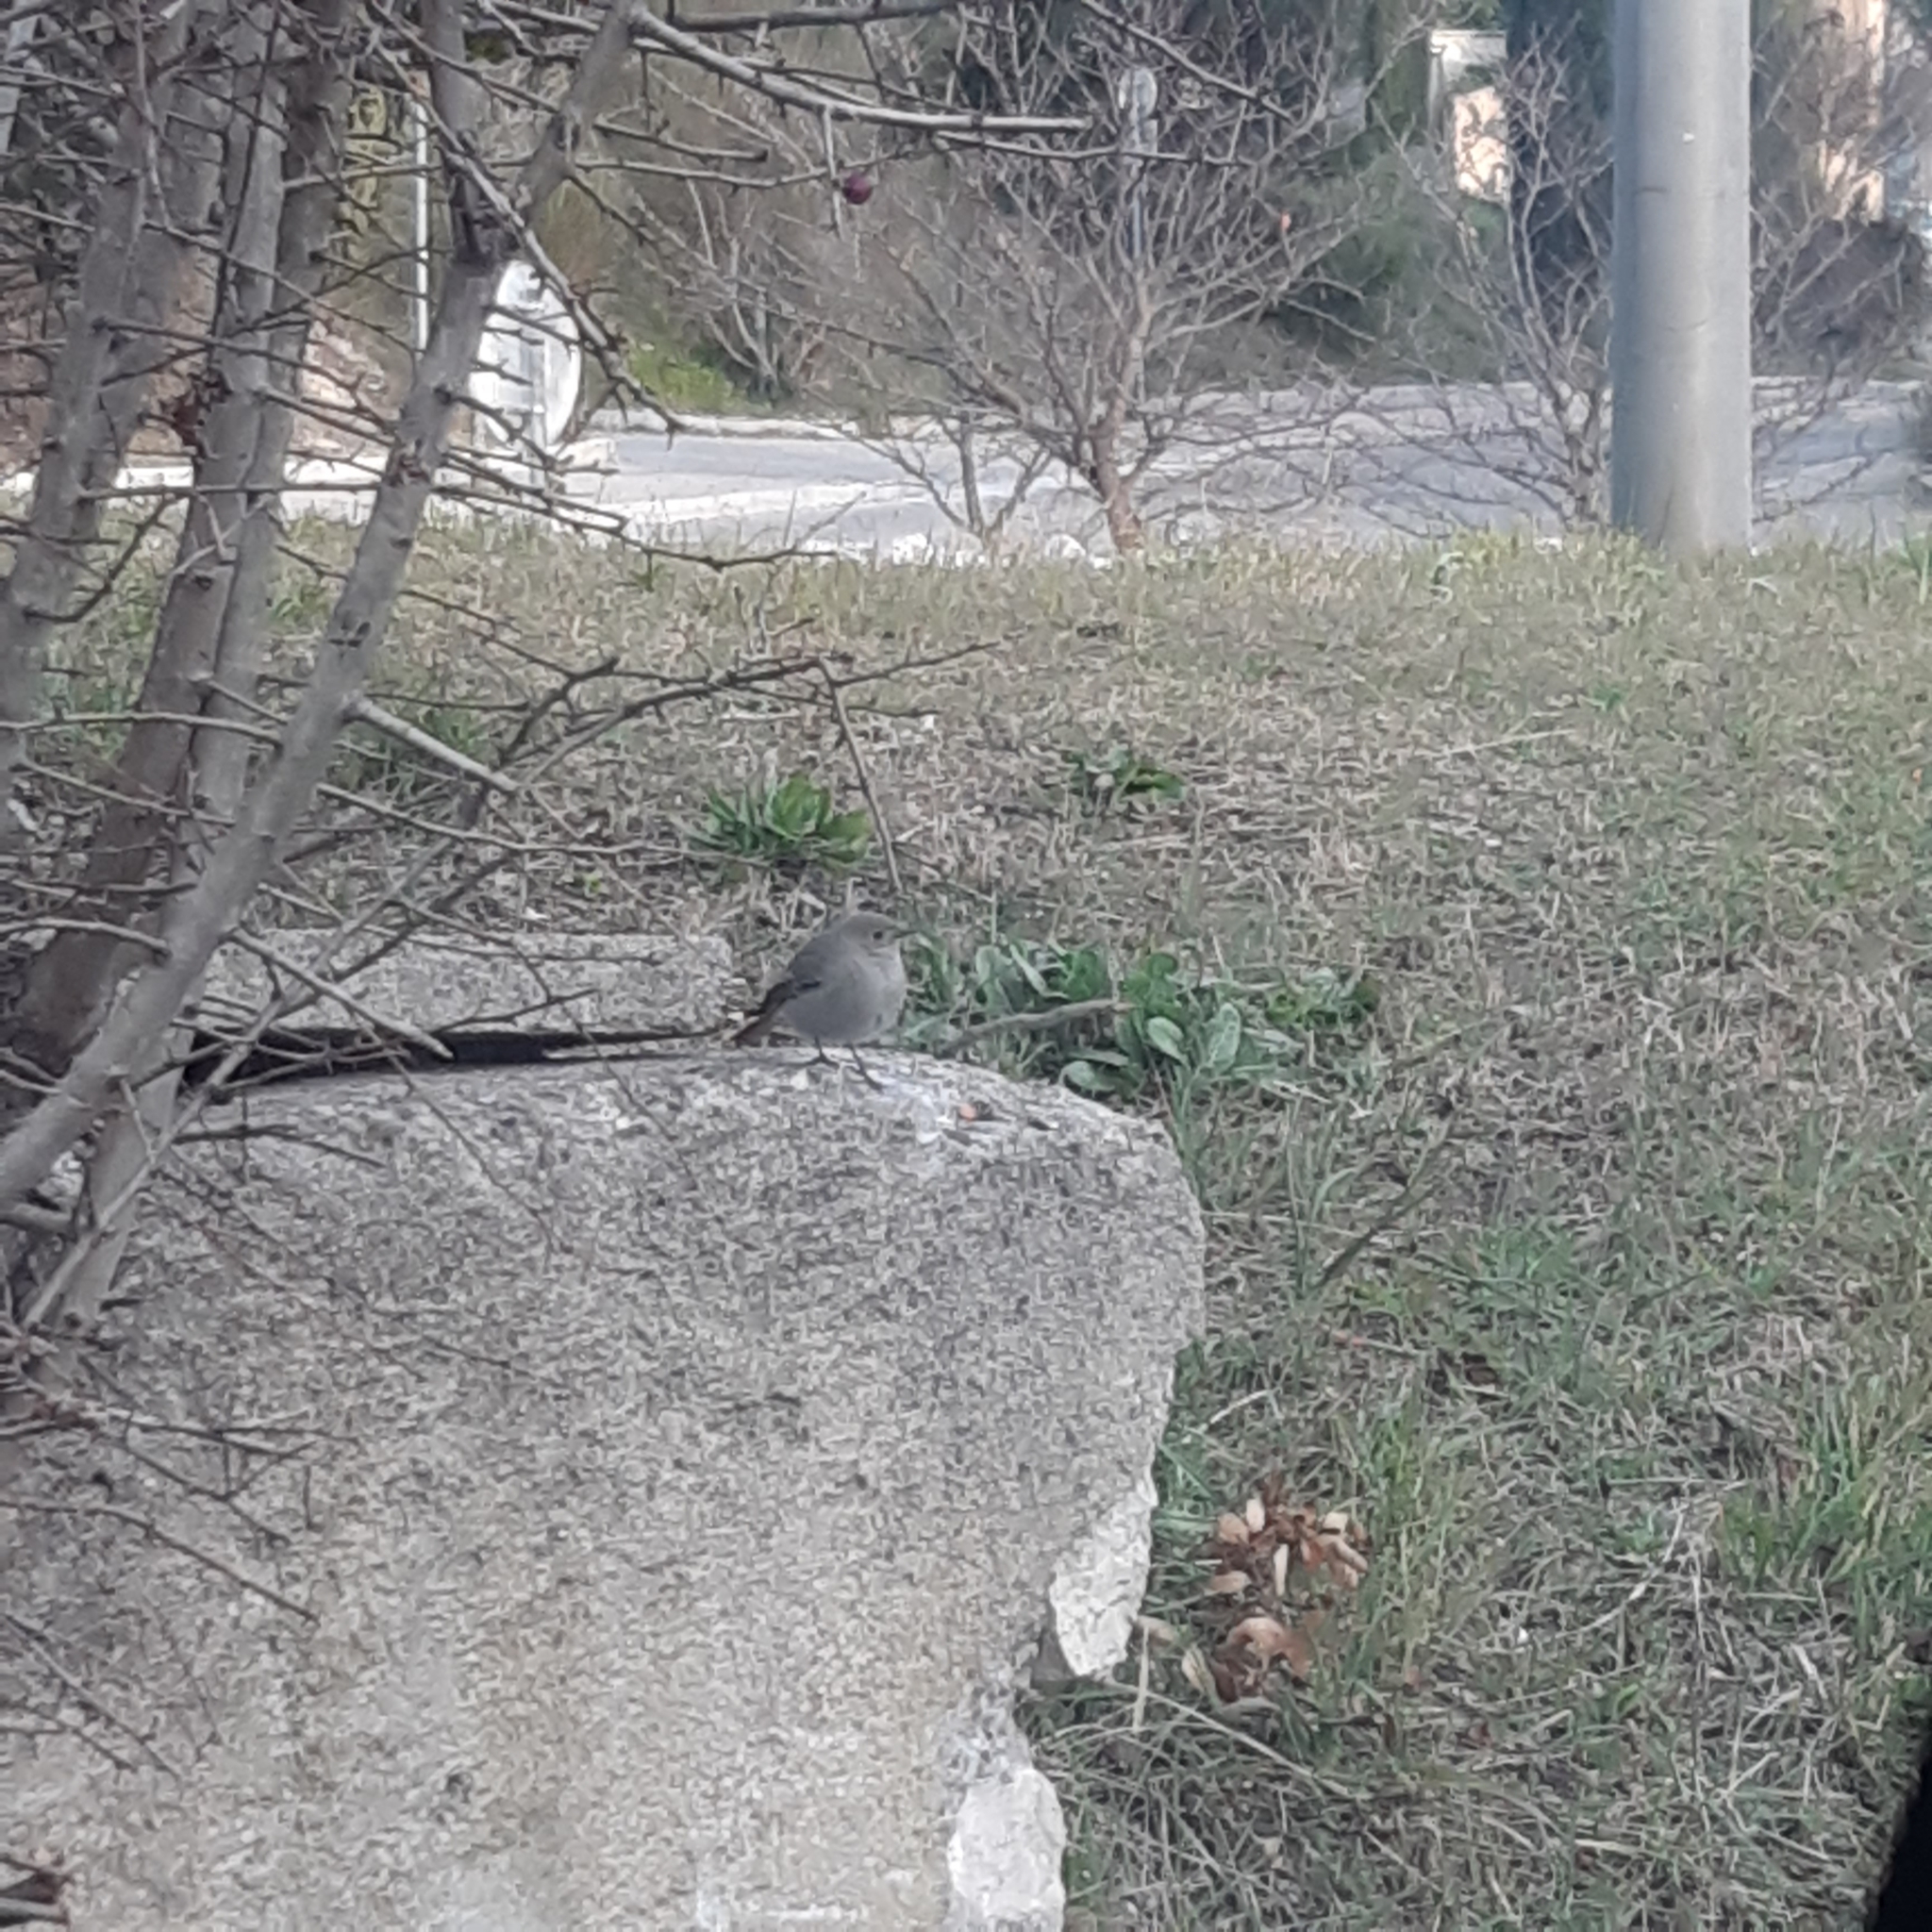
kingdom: Animalia
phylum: Chordata
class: Aves
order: Passeriformes
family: Muscicapidae
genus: Phoenicurus
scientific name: Phoenicurus ochruros
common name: Black redstart
